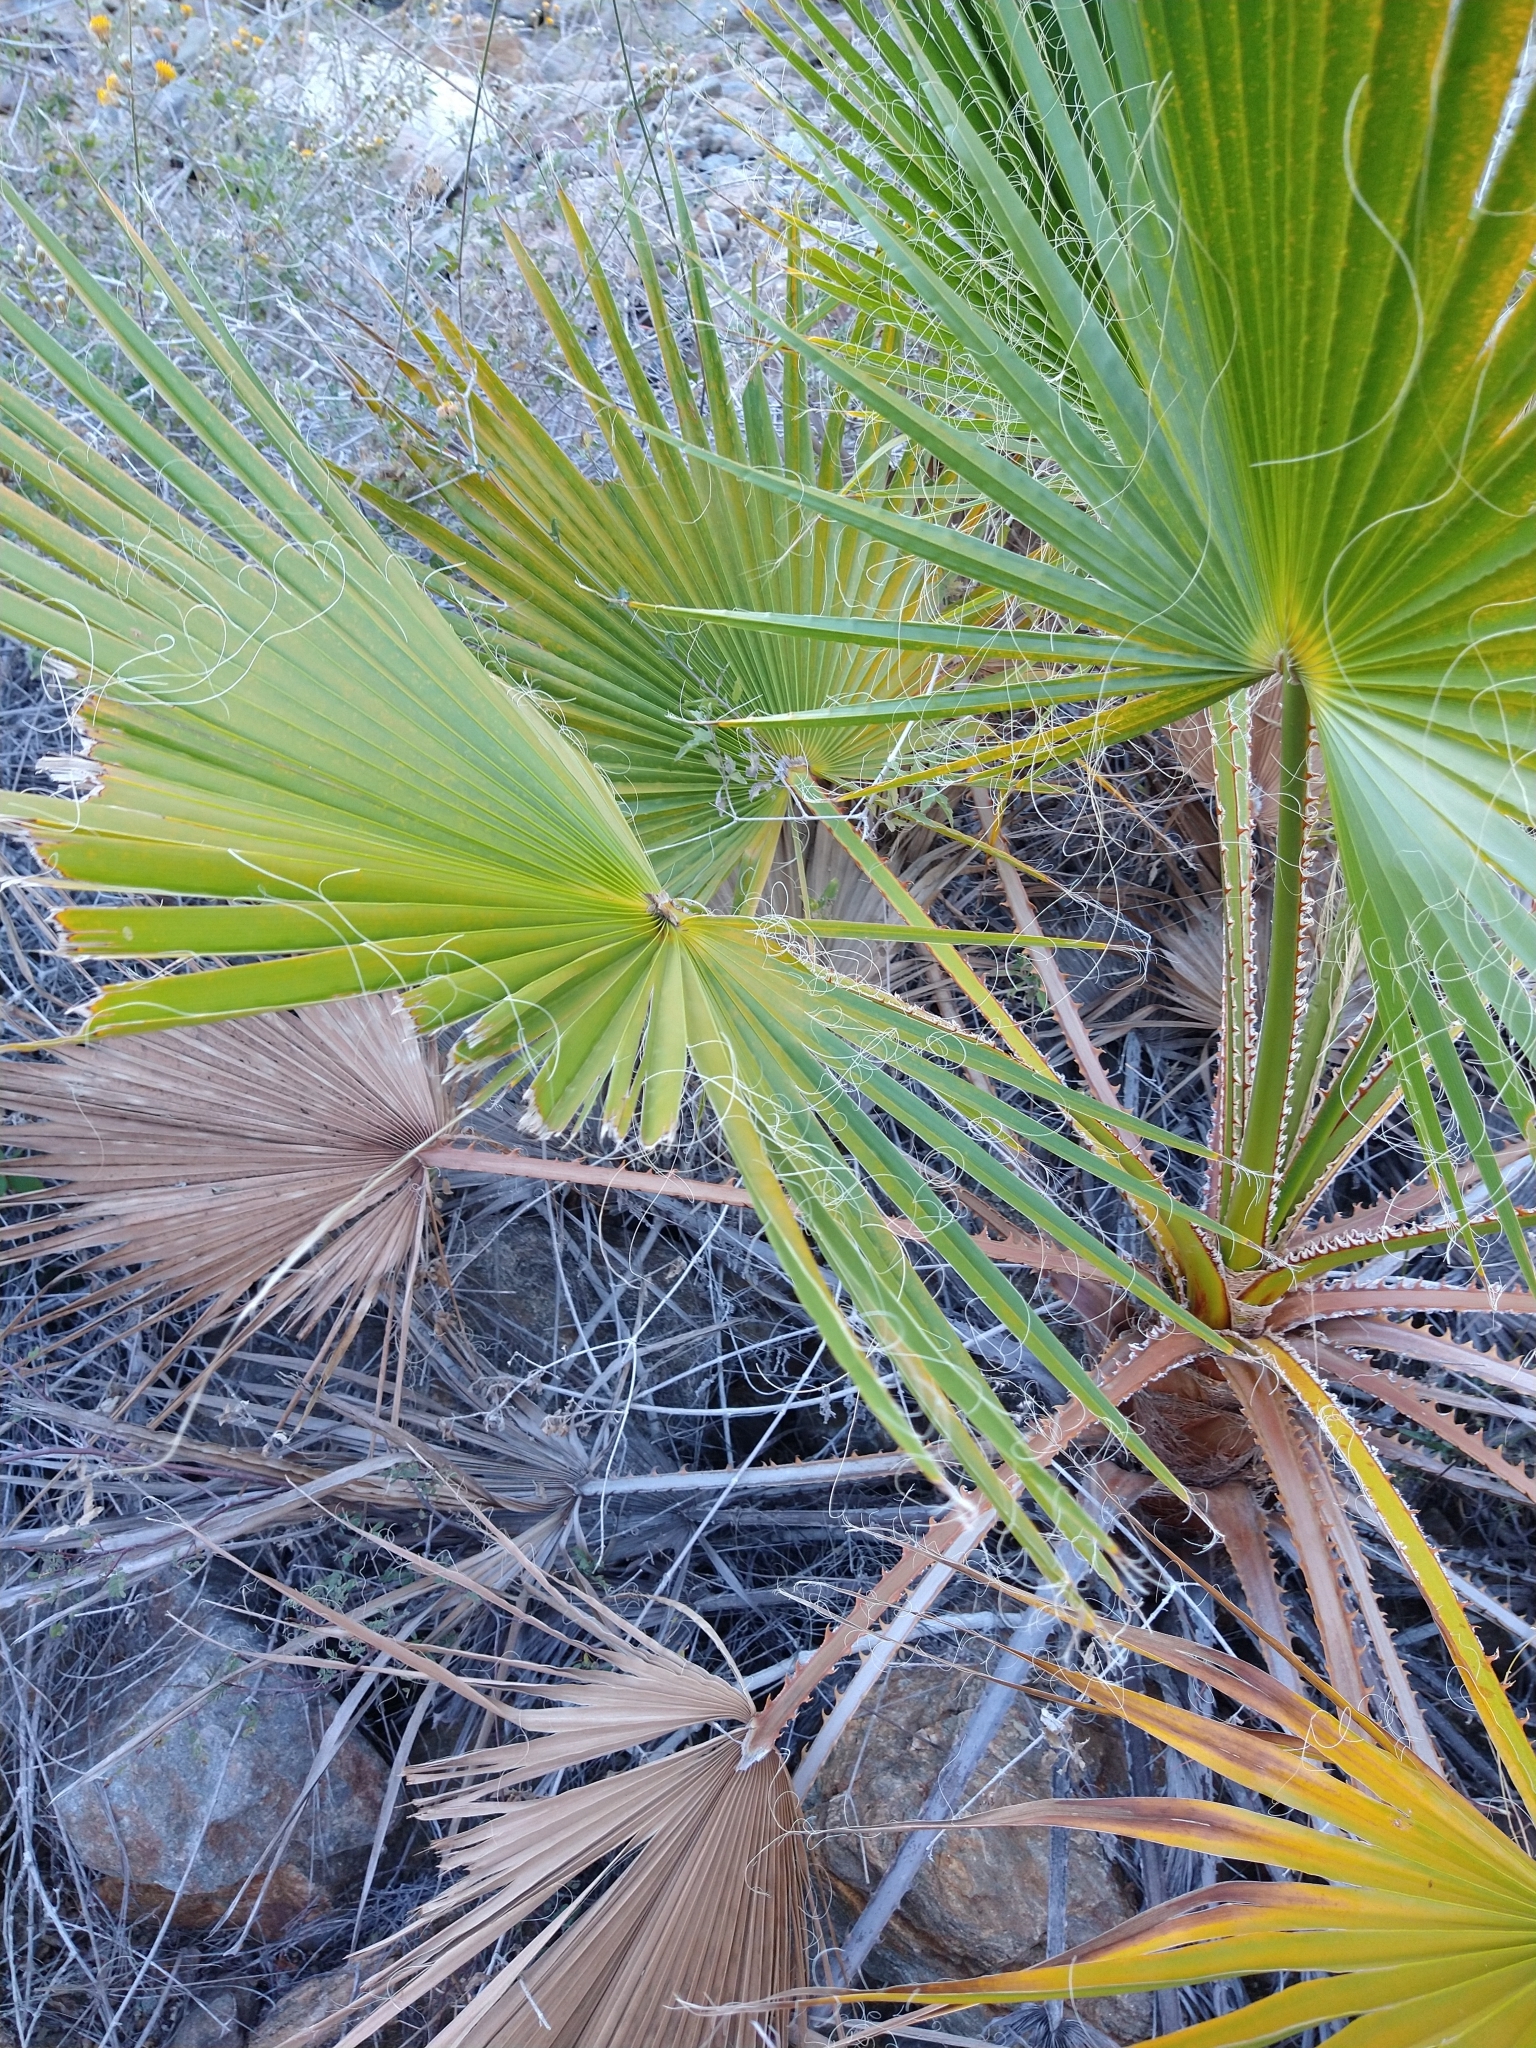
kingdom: Plantae
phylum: Tracheophyta
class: Liliopsida
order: Arecales
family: Arecaceae
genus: Washingtonia
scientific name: Washingtonia robusta
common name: Mexican fan palm
